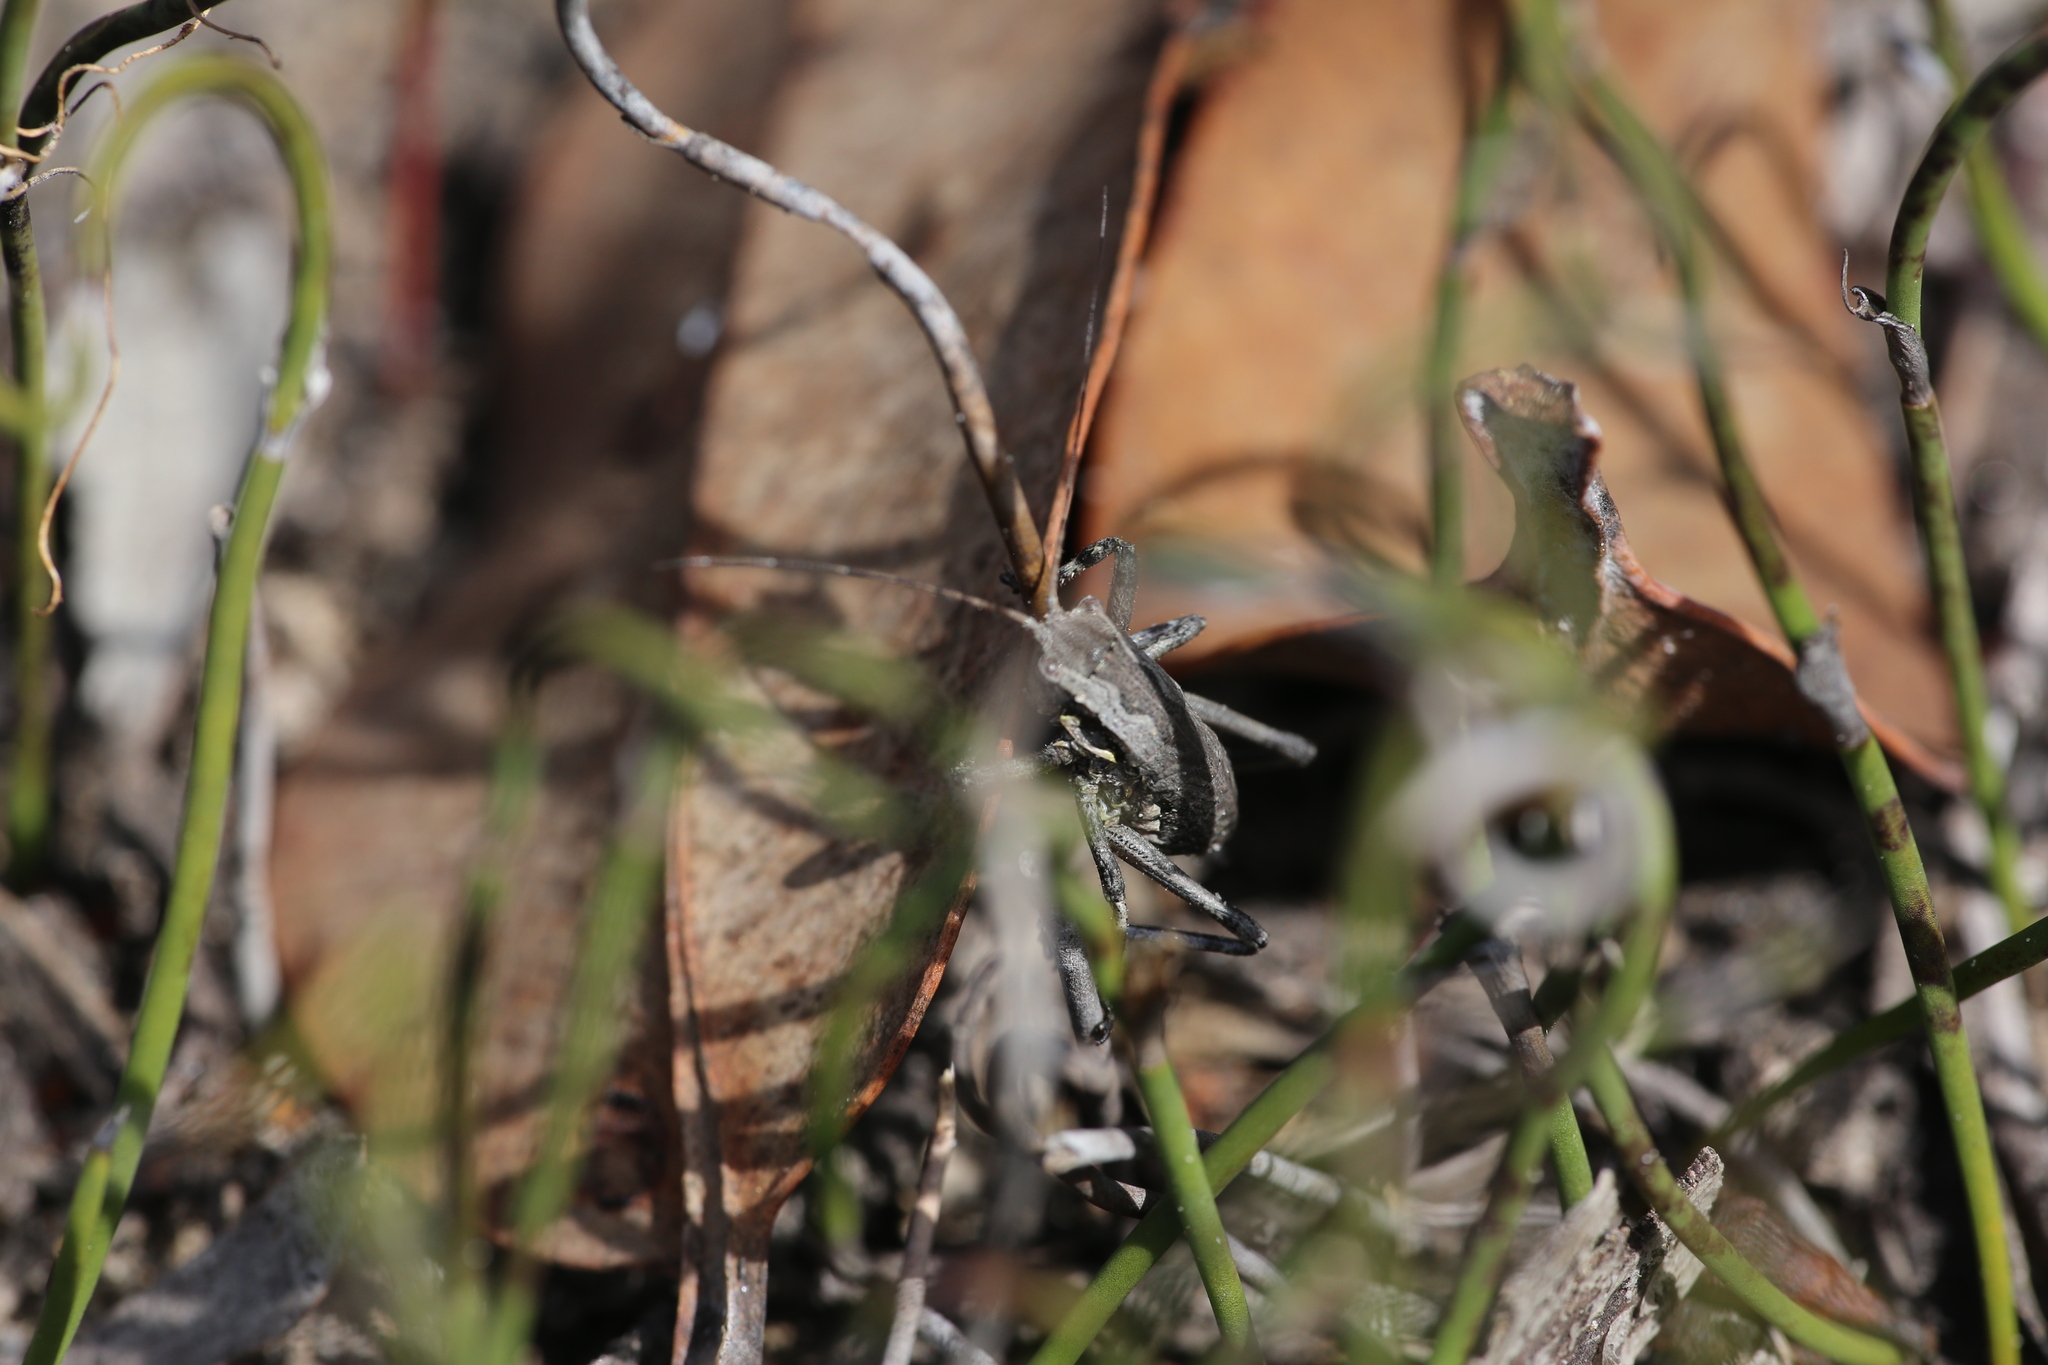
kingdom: Animalia
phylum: Arthropoda
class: Insecta
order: Orthoptera
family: Tettigoniidae
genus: Pachysaga
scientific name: Pachysaga croceopteryx
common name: Yellow winged pachysaga
